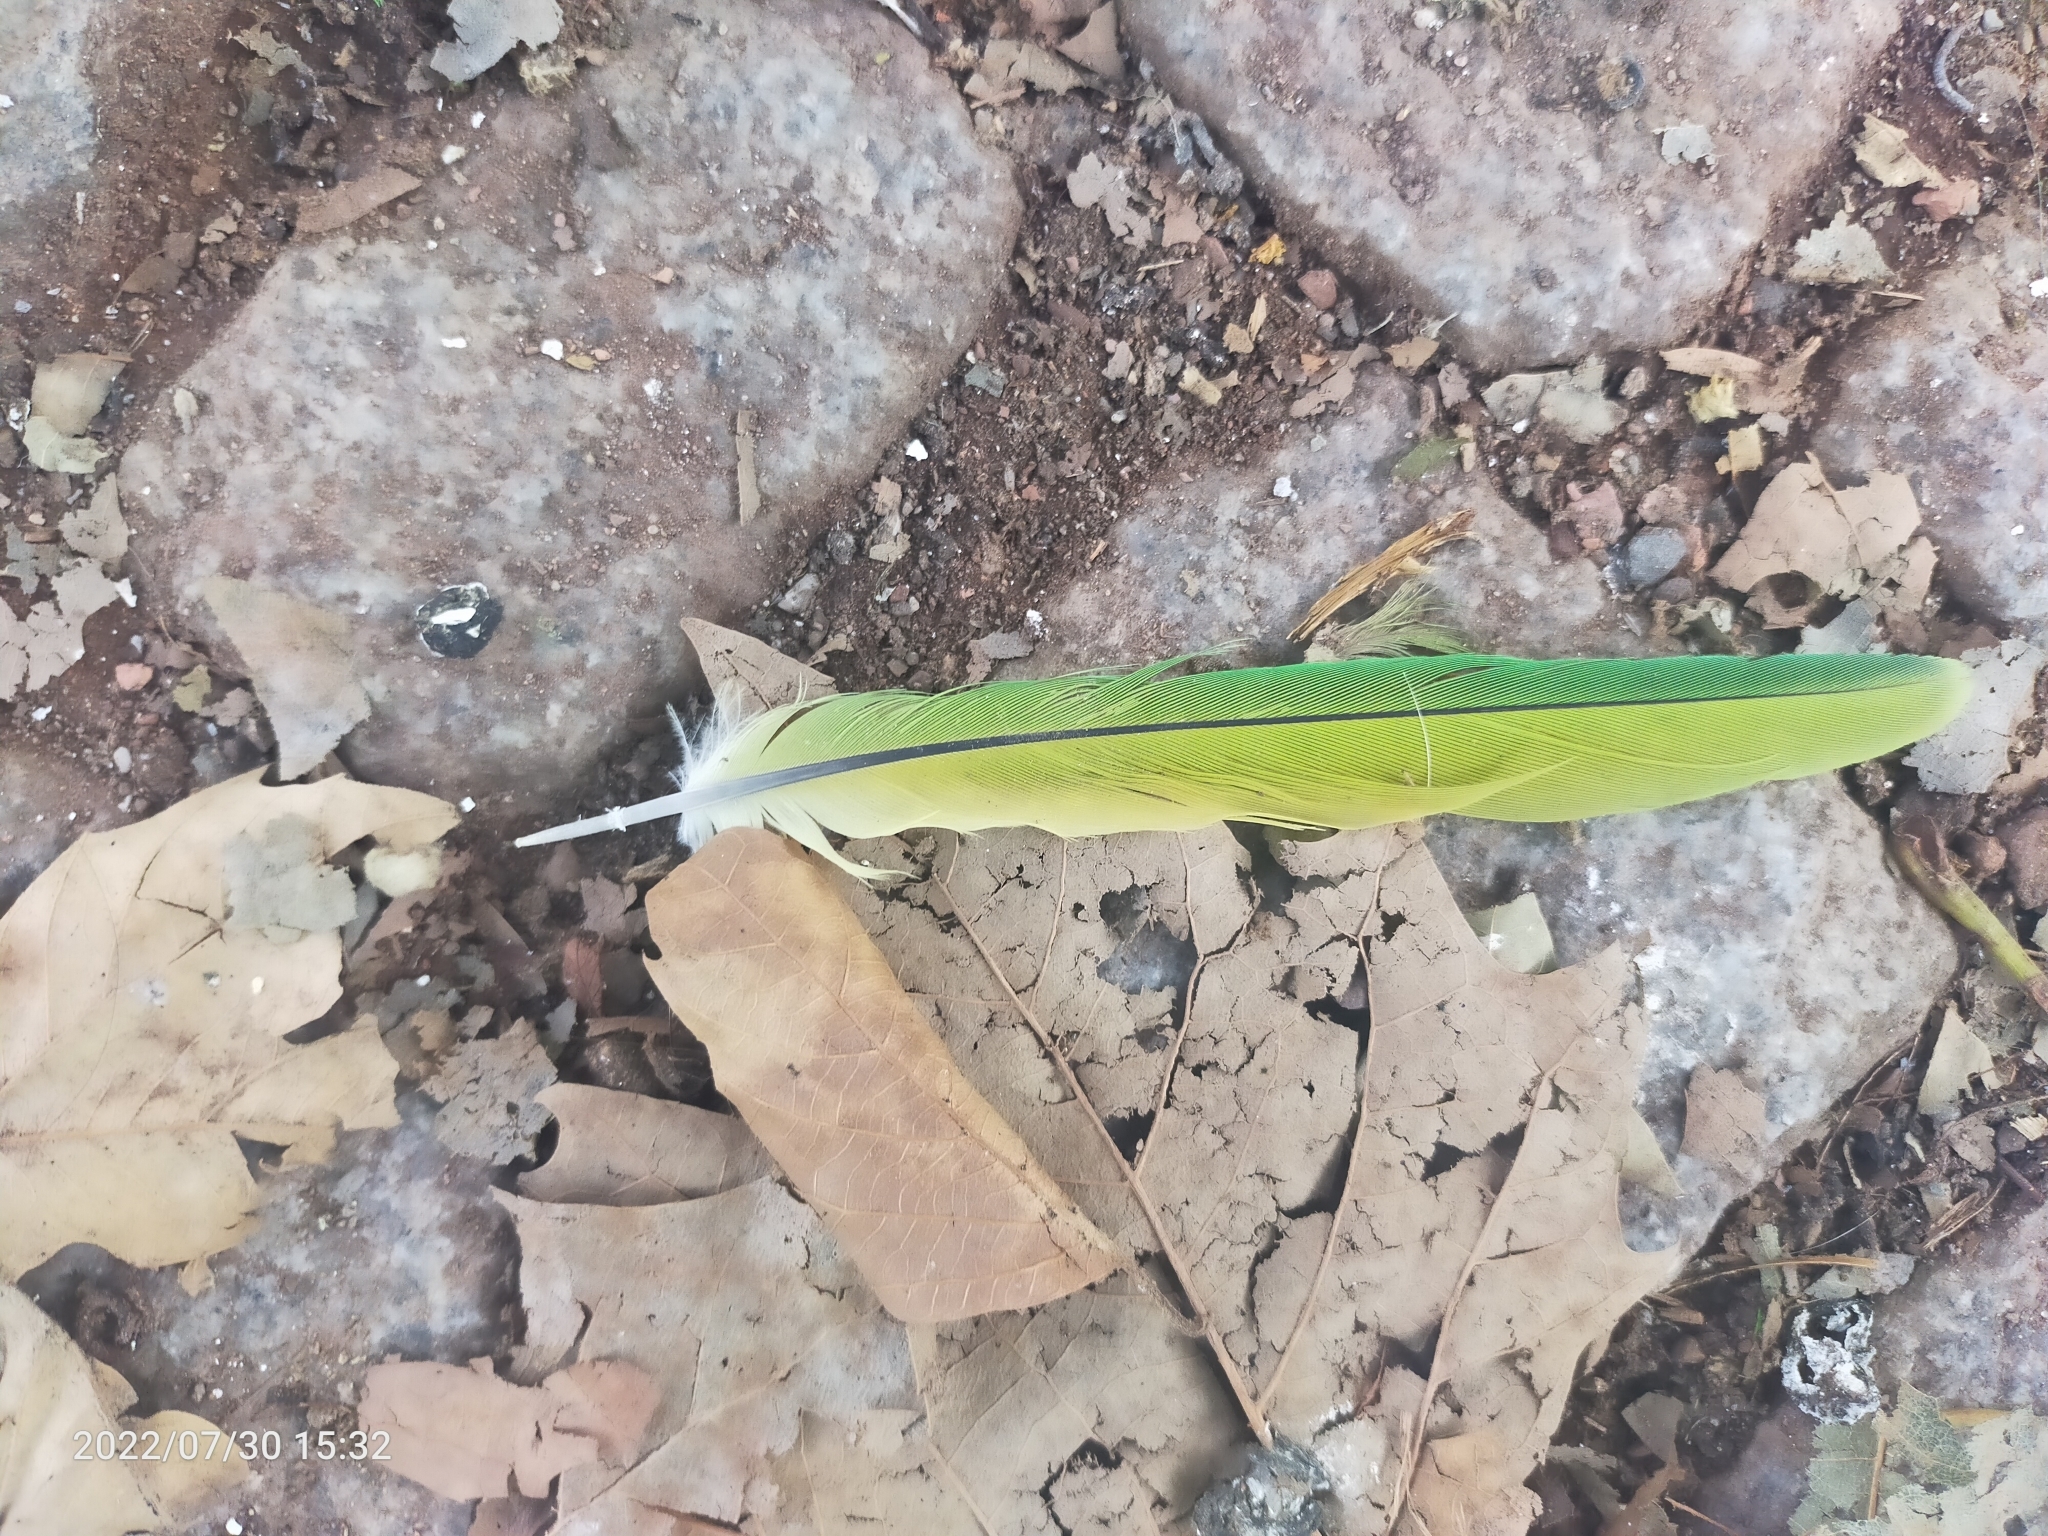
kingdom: Animalia
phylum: Chordata
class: Aves
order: Psittaciformes
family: Psittacidae
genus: Psittacula
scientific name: Psittacula
